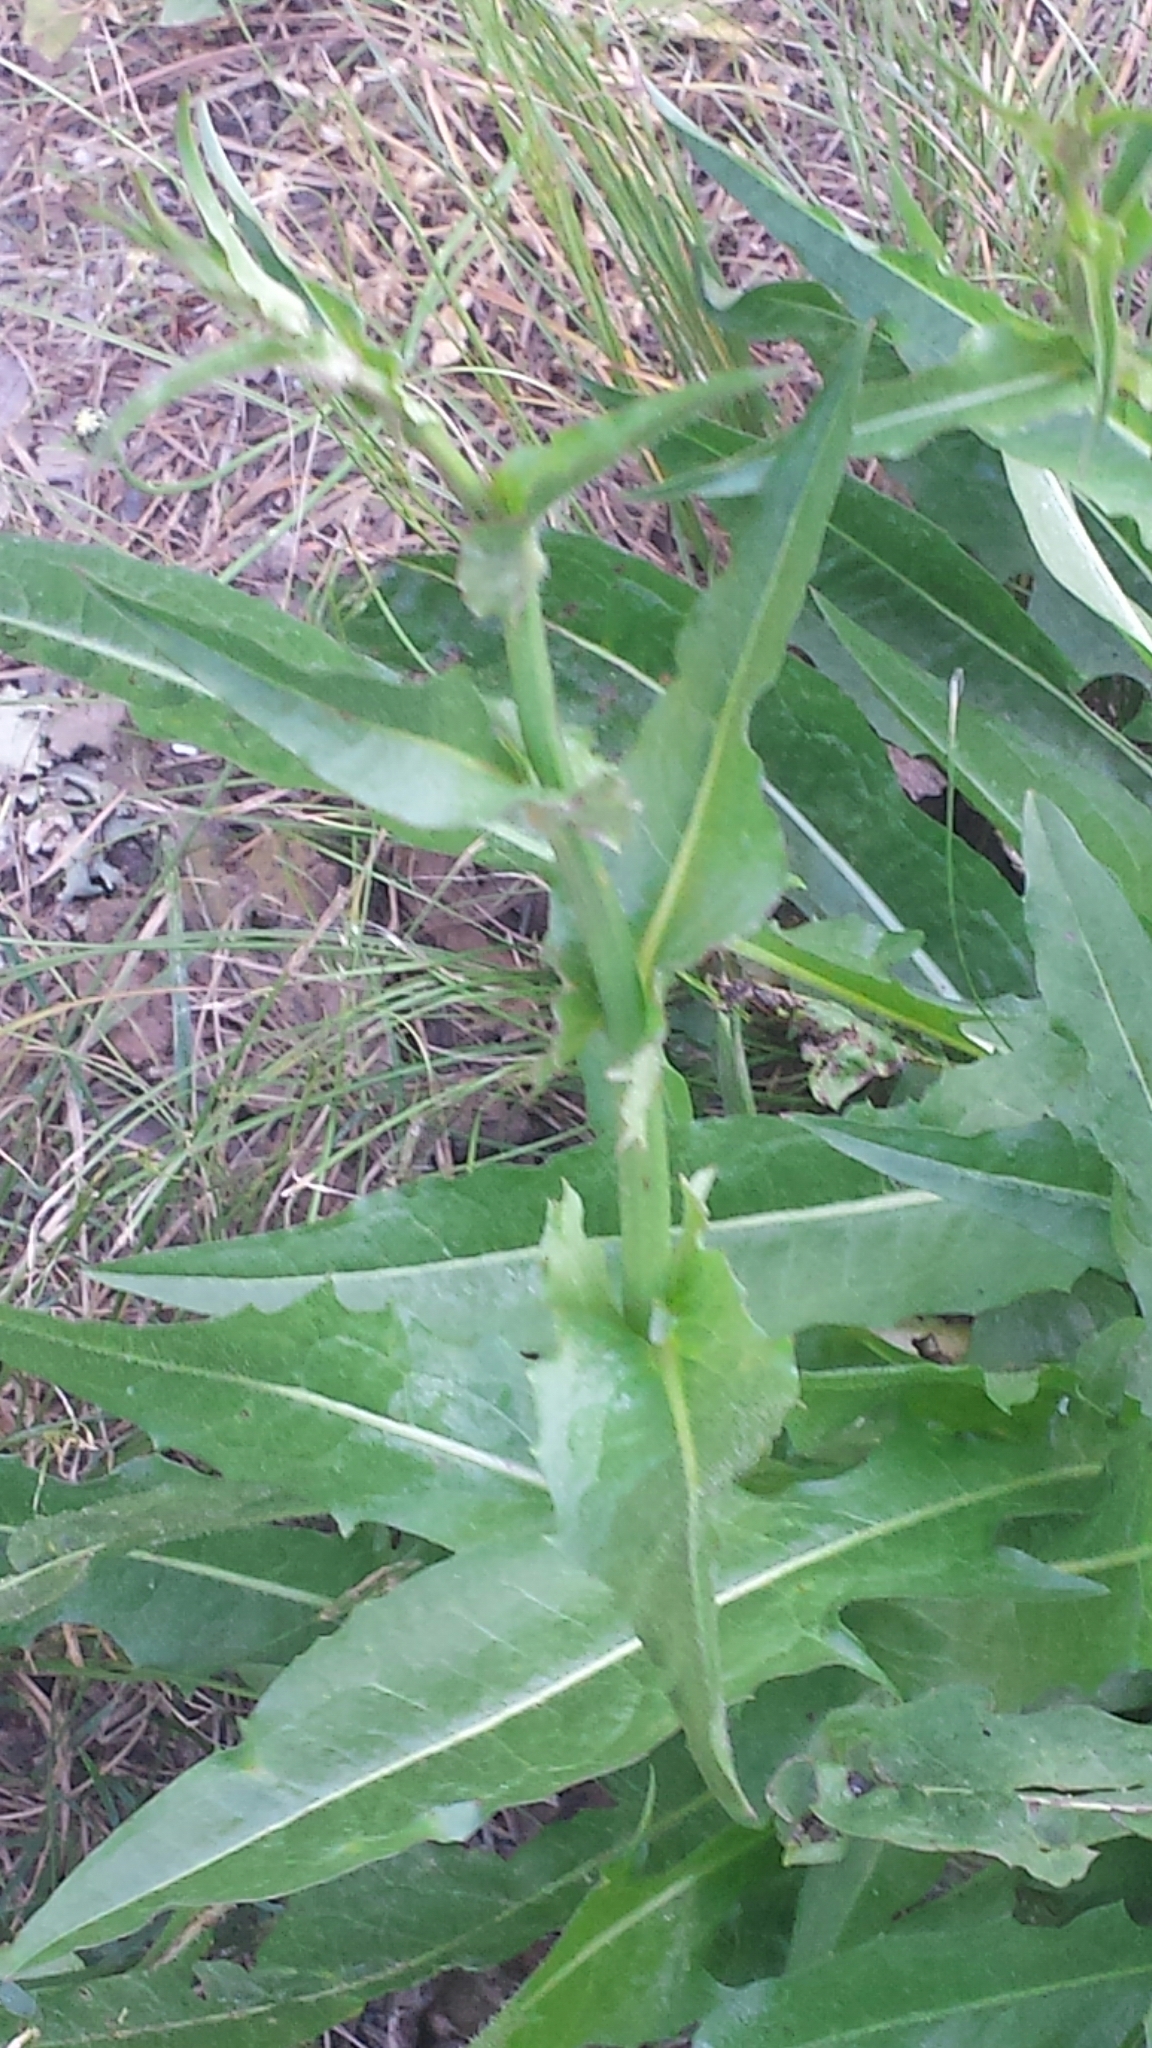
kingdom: Plantae
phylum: Tracheophyta
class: Magnoliopsida
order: Asterales
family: Asteraceae
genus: Cichorium
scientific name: Cichorium intybus
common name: Chicory
